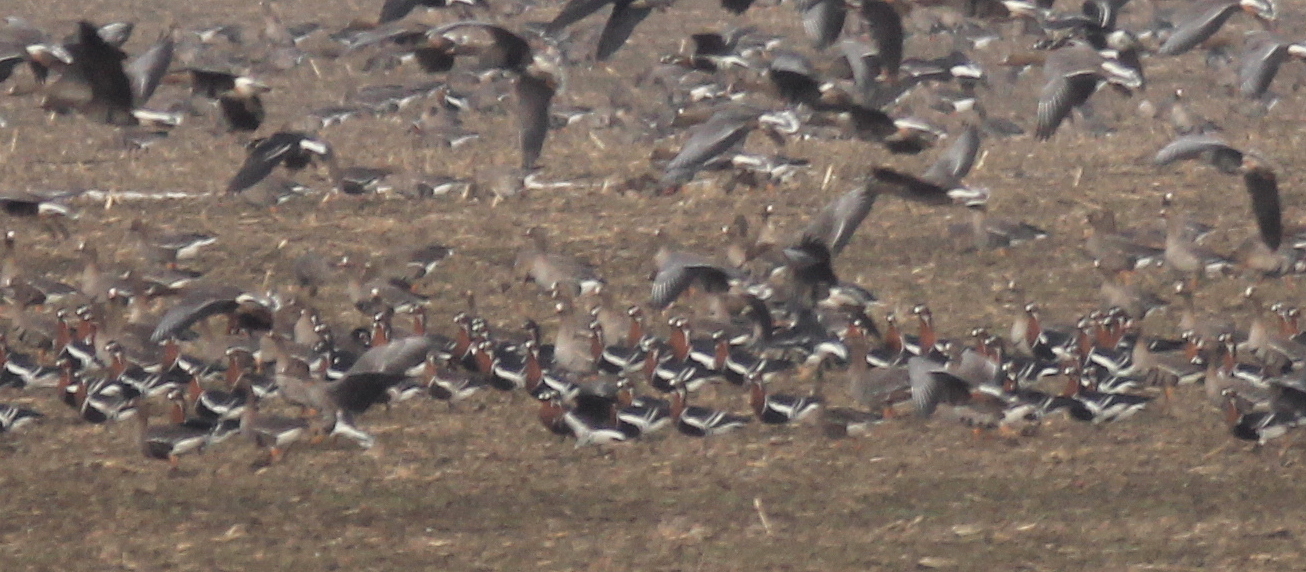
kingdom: Animalia
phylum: Chordata
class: Aves
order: Anseriformes
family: Anatidae
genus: Branta
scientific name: Branta ruficollis
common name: Red-breasted goose
